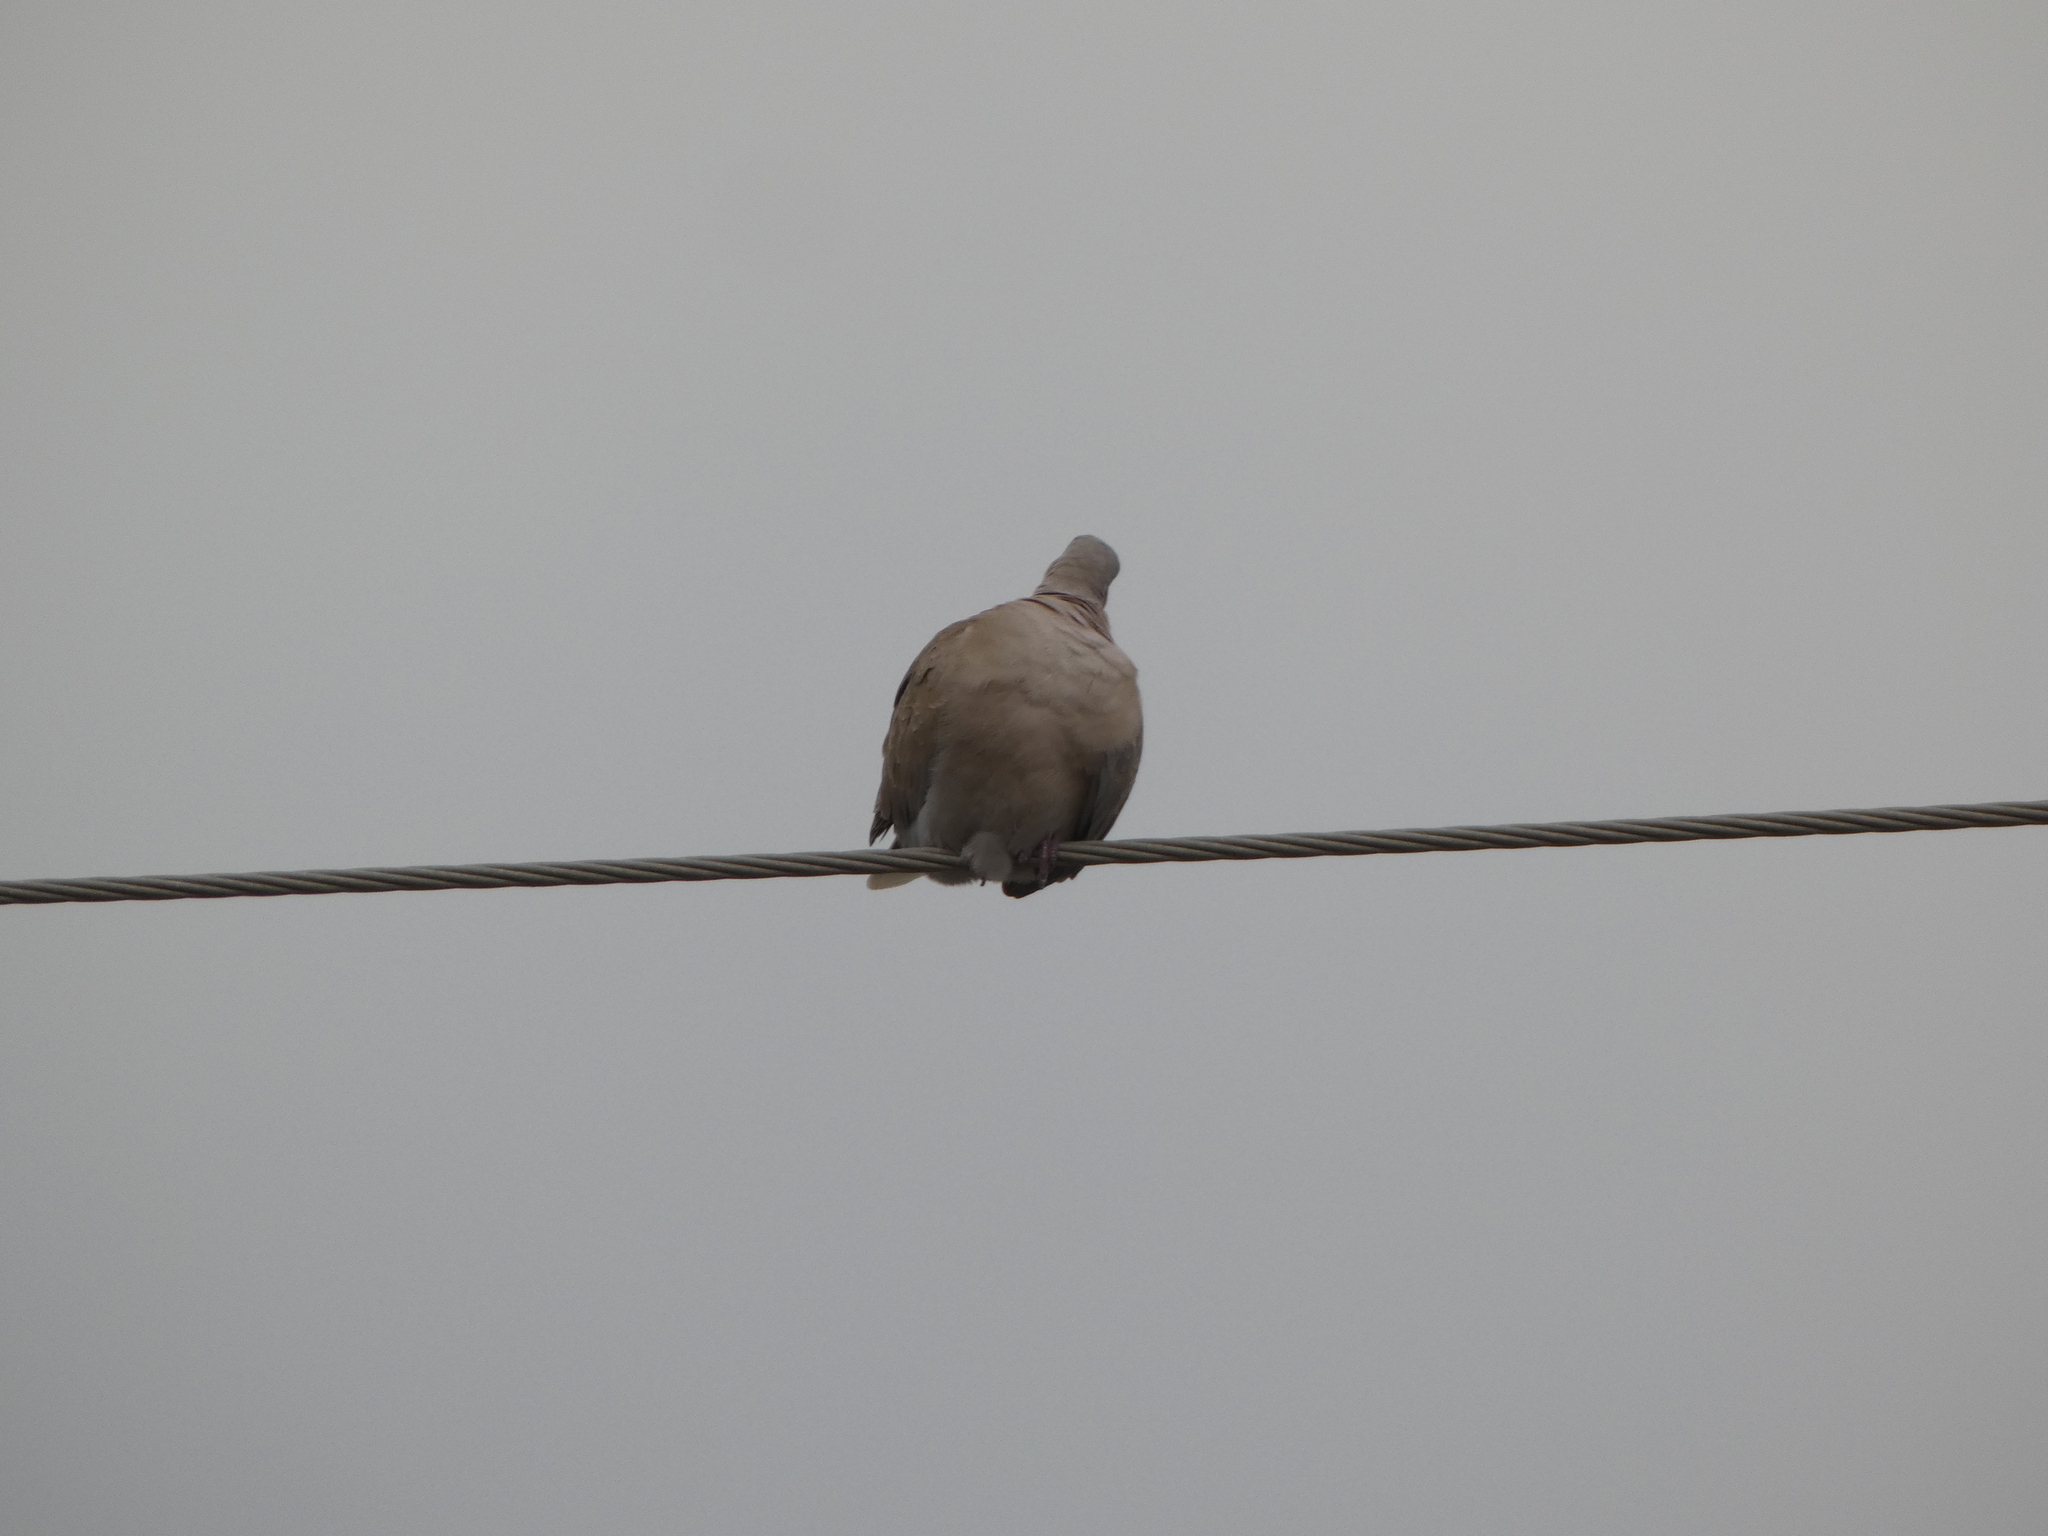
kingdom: Animalia
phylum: Chordata
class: Aves
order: Columbiformes
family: Columbidae
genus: Streptopelia
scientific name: Streptopelia decaocto
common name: Eurasian collared dove
